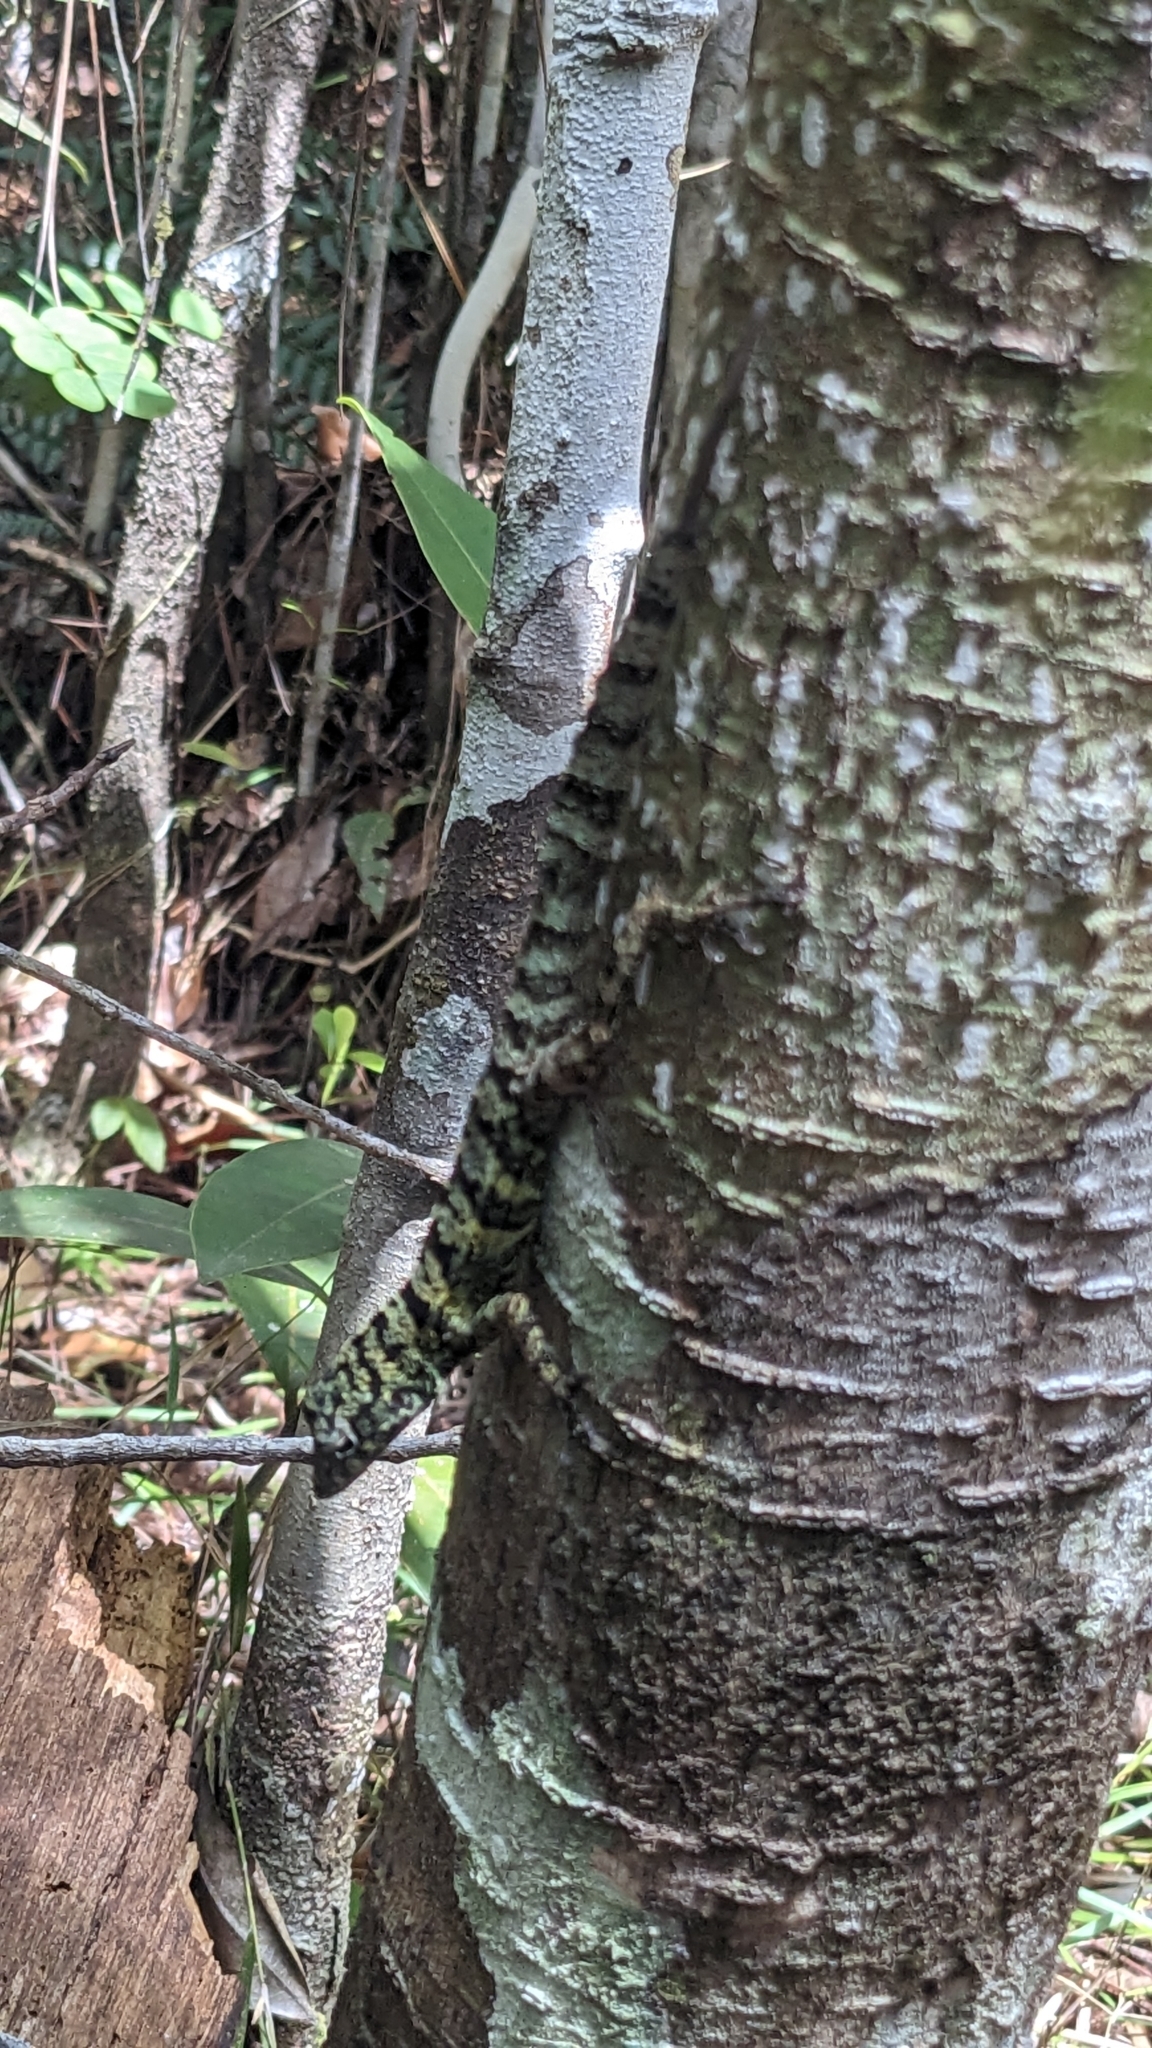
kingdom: Animalia
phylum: Chordata
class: Squamata
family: Dactyloidae
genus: Anolis
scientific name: Anolis rubribarbus
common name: Sagua de tanamo anole
